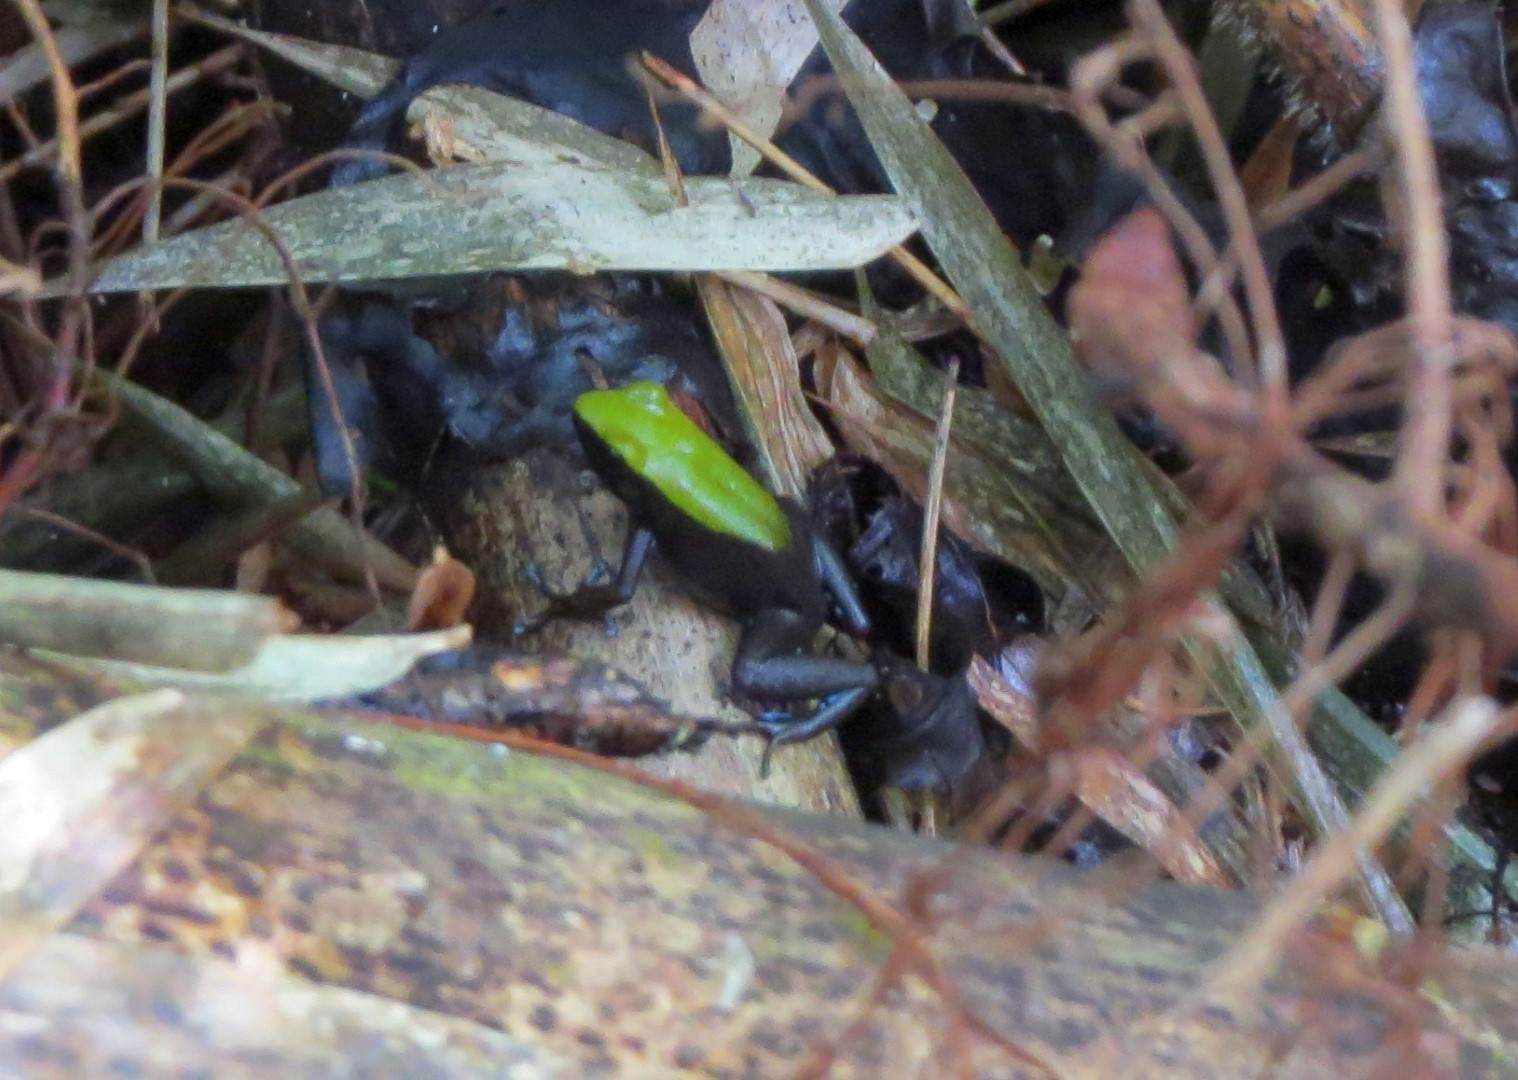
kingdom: Animalia
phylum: Chordata
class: Amphibia
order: Anura
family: Mantellidae
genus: Mantella
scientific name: Mantella laevigata
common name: Arboreal mantella
